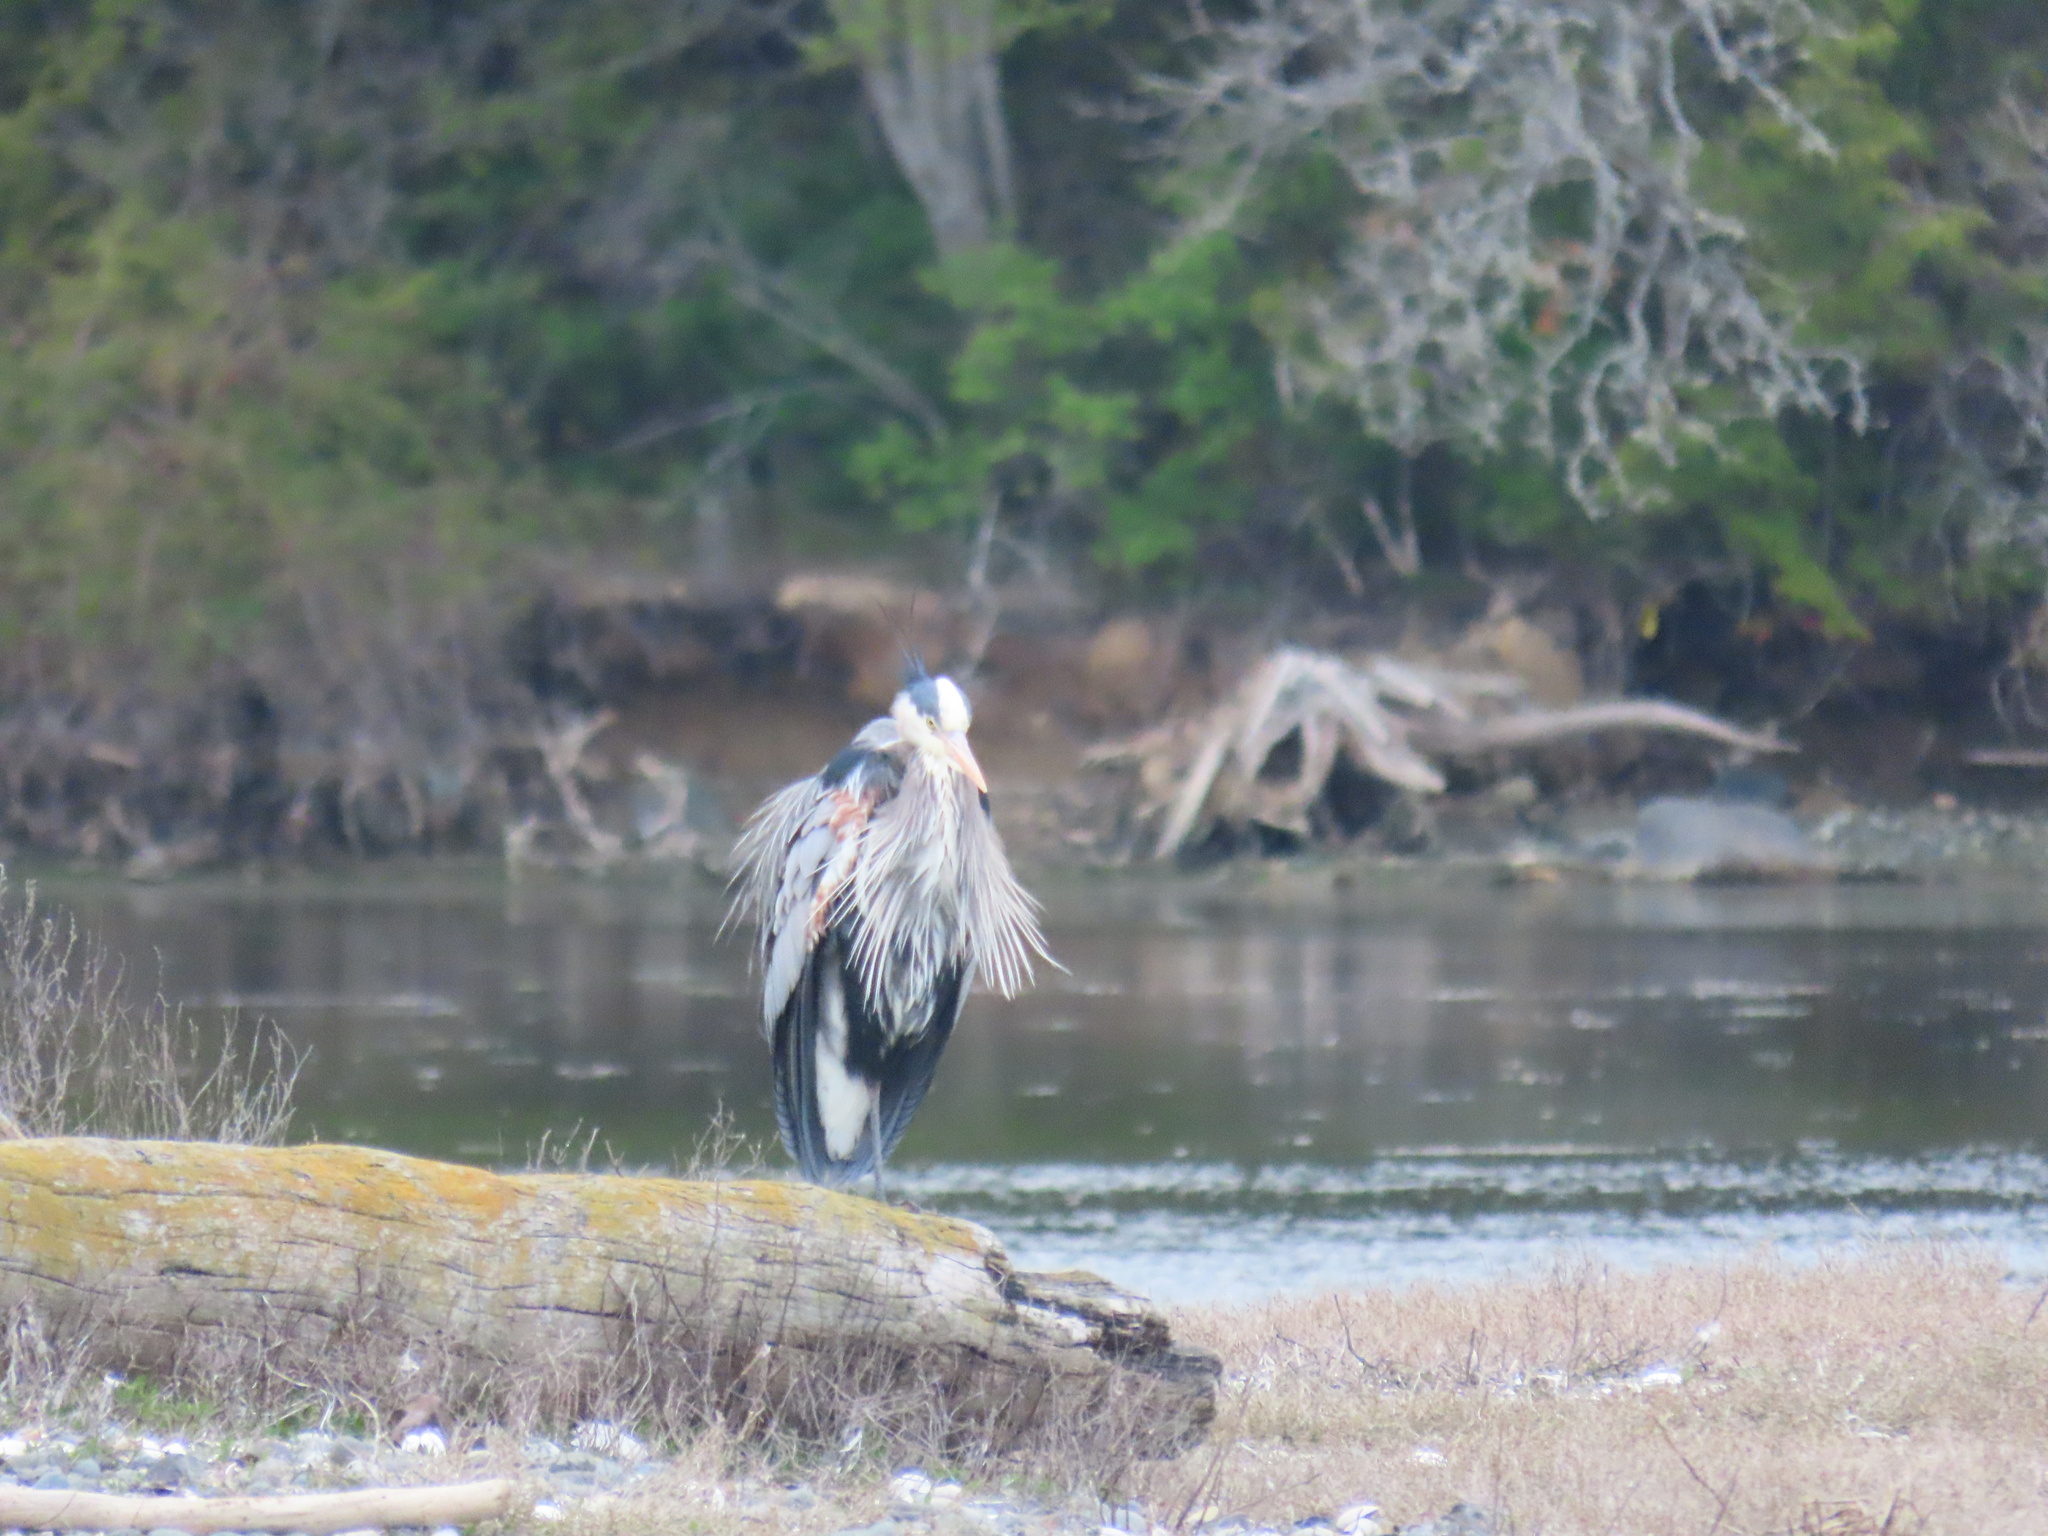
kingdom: Animalia
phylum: Chordata
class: Aves
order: Pelecaniformes
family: Ardeidae
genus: Ardea
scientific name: Ardea herodias
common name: Great blue heron
